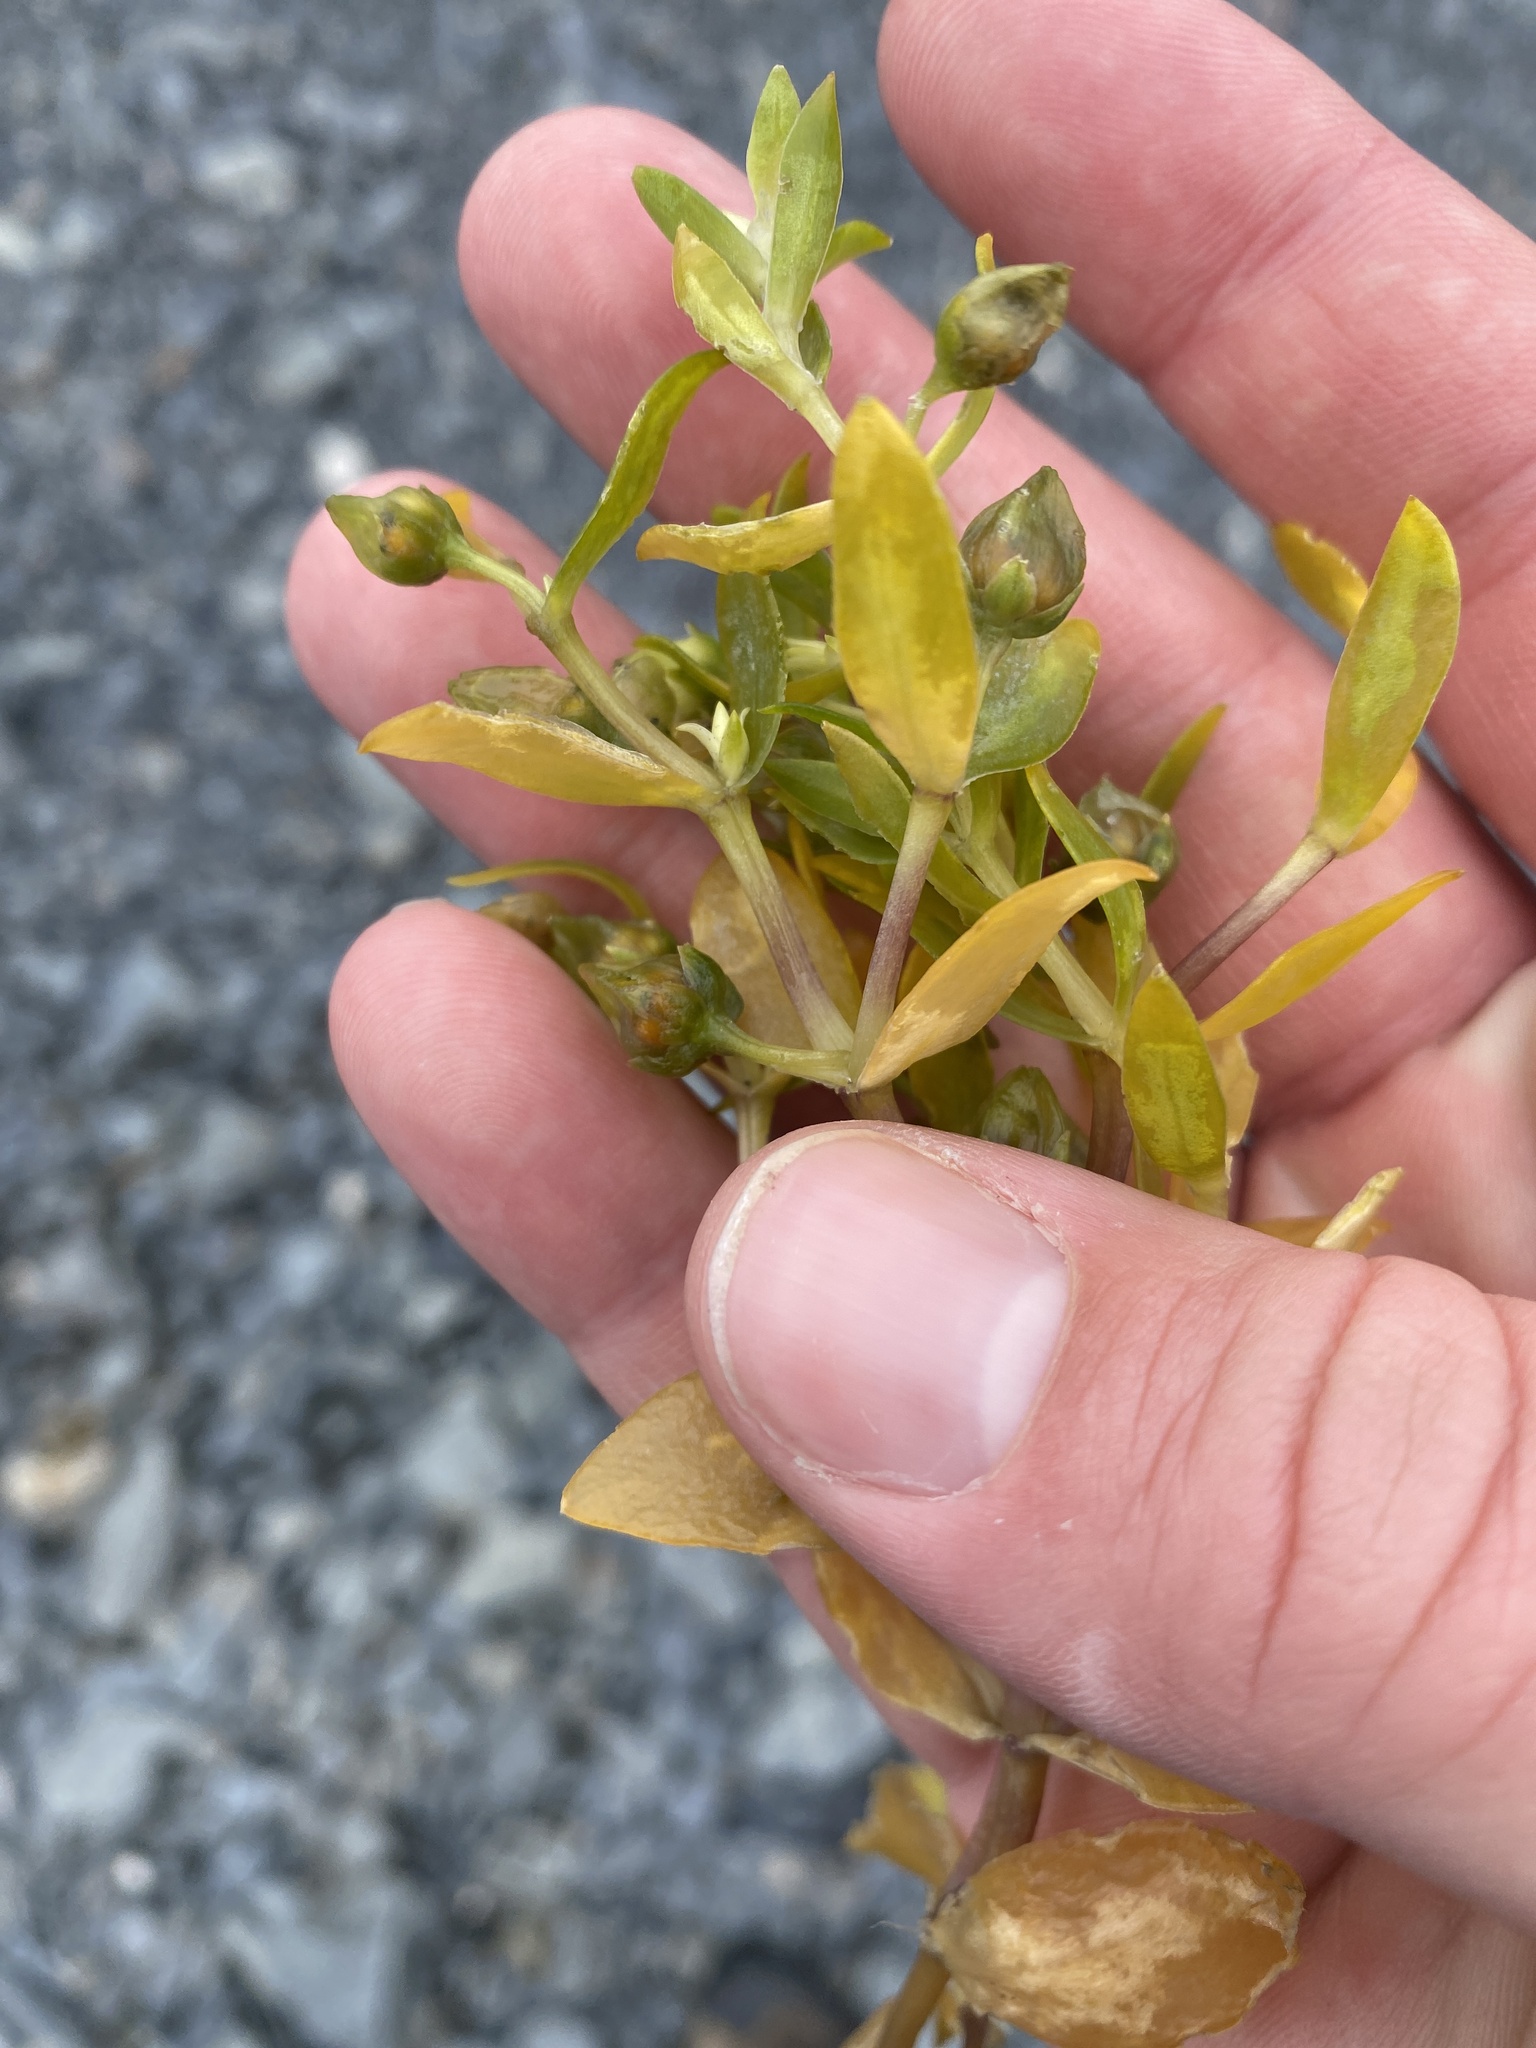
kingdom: Plantae
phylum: Tracheophyta
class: Magnoliopsida
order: Caryophyllales
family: Caryophyllaceae
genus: Honckenya
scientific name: Honckenya peploides
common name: Sea sandwort
